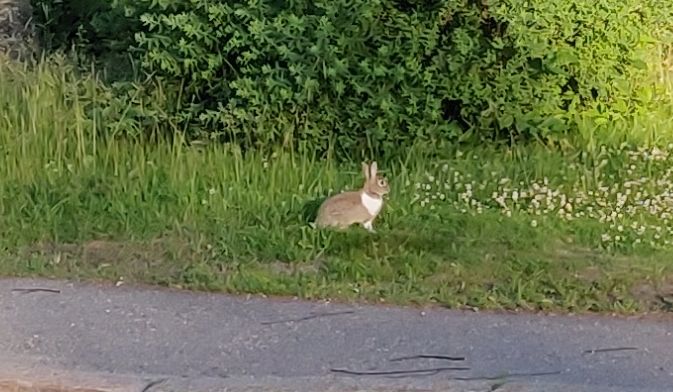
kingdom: Animalia
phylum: Chordata
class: Mammalia
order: Lagomorpha
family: Leporidae
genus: Oryctolagus
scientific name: Oryctolagus cuniculus
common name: European rabbit
